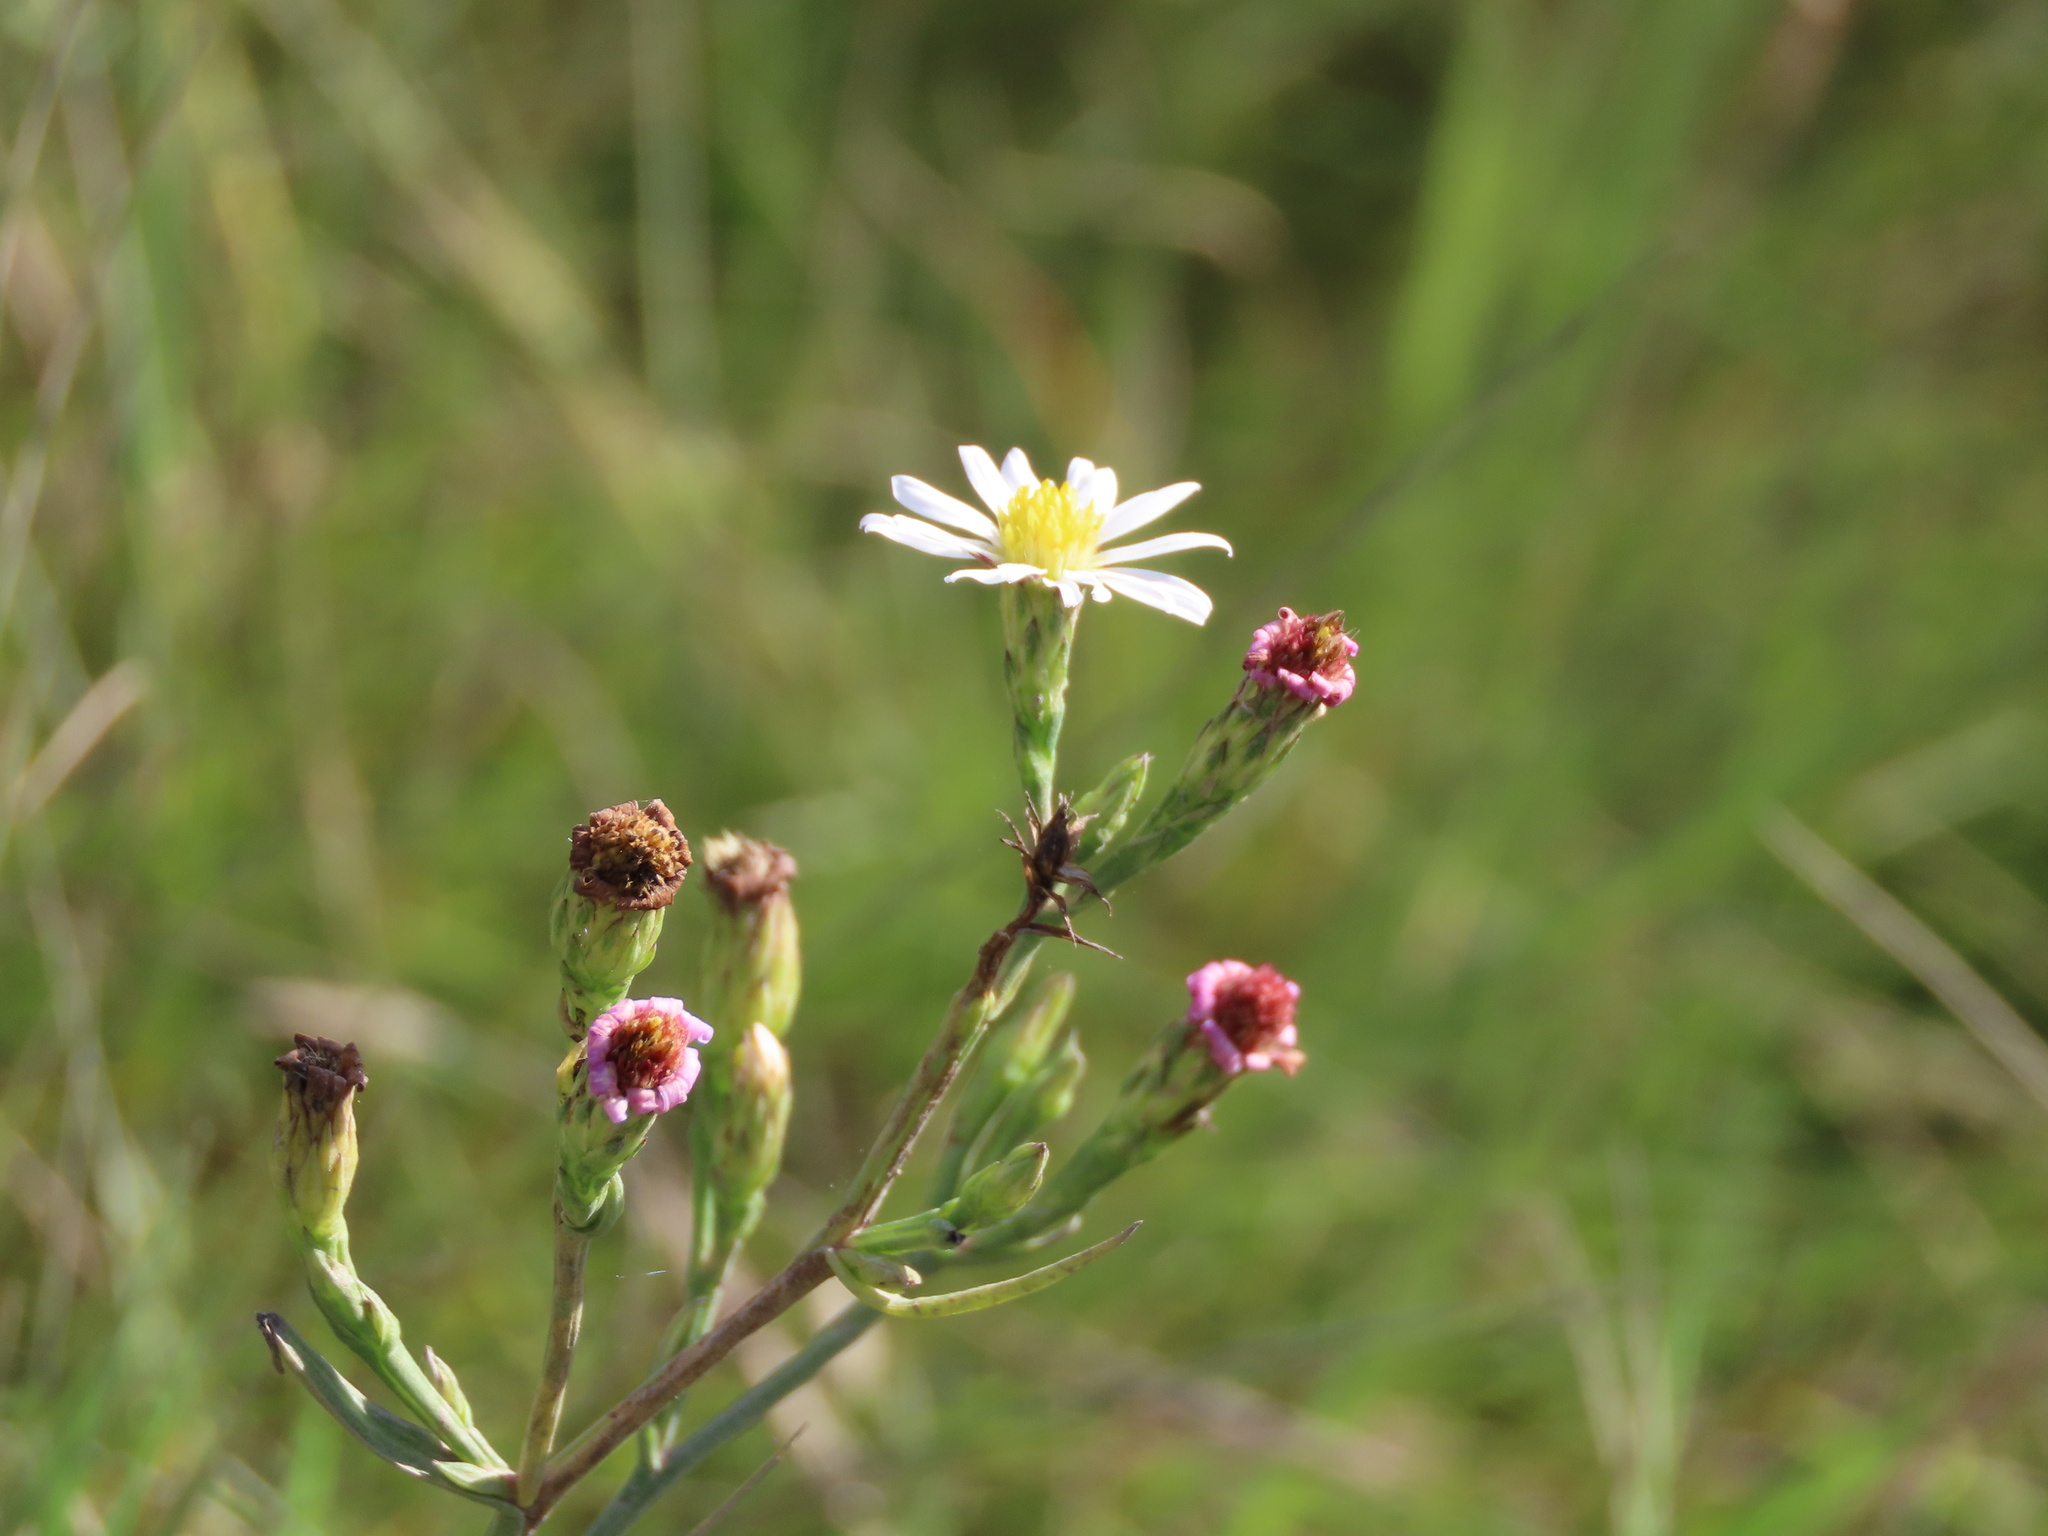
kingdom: Plantae
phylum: Tracheophyta
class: Magnoliopsida
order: Asterales
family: Asteraceae
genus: Symphyotrichum
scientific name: Symphyotrichum tenuifolium
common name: Perennial salt-marsh aster
